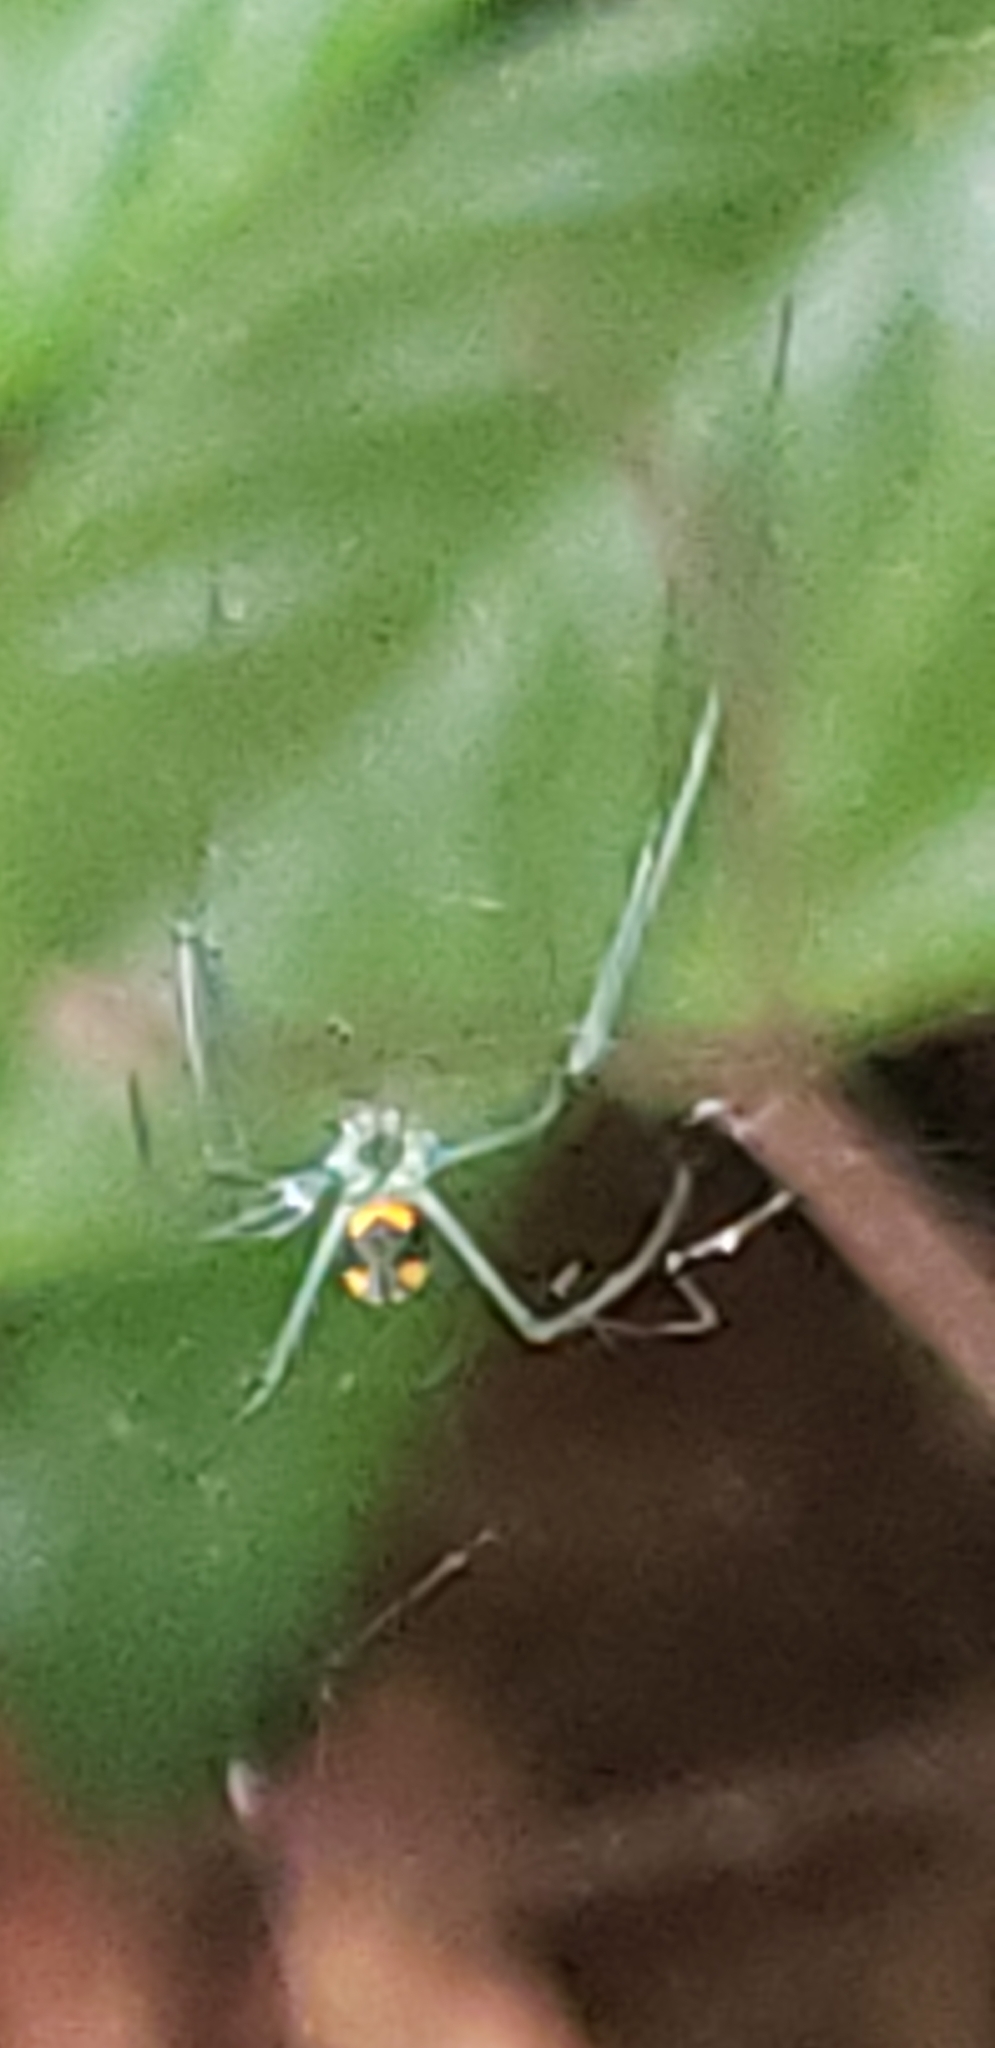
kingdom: Animalia
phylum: Arthropoda
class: Arachnida
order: Araneae
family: Tetragnathidae
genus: Leucauge
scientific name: Leucauge argyrobapta
